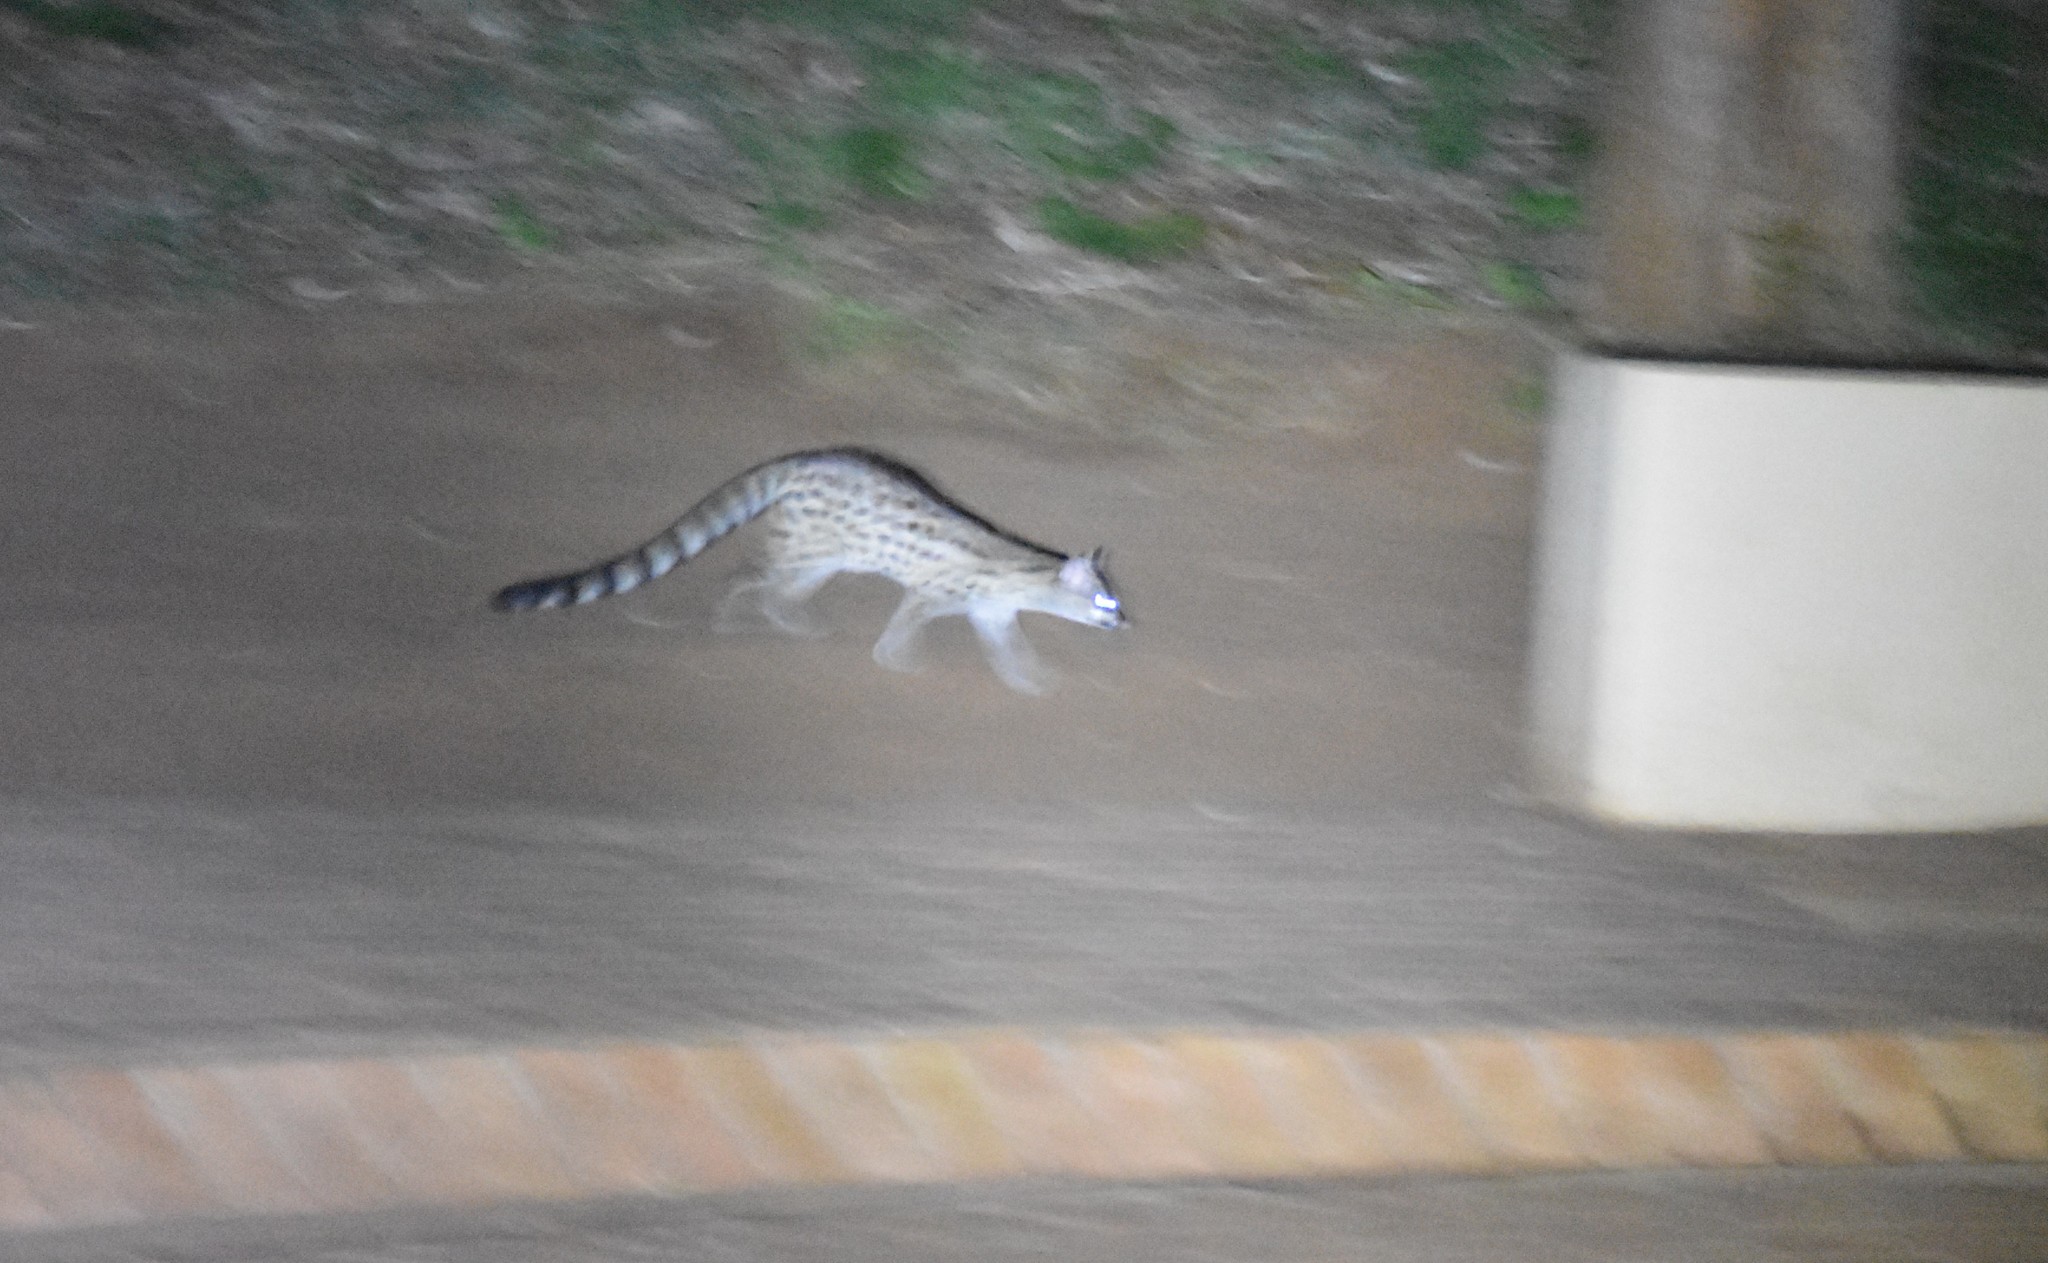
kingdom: Animalia
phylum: Chordata
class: Mammalia
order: Carnivora
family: Viverridae
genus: Genetta
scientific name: Genetta maculata
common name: Rusty-spotted genet
